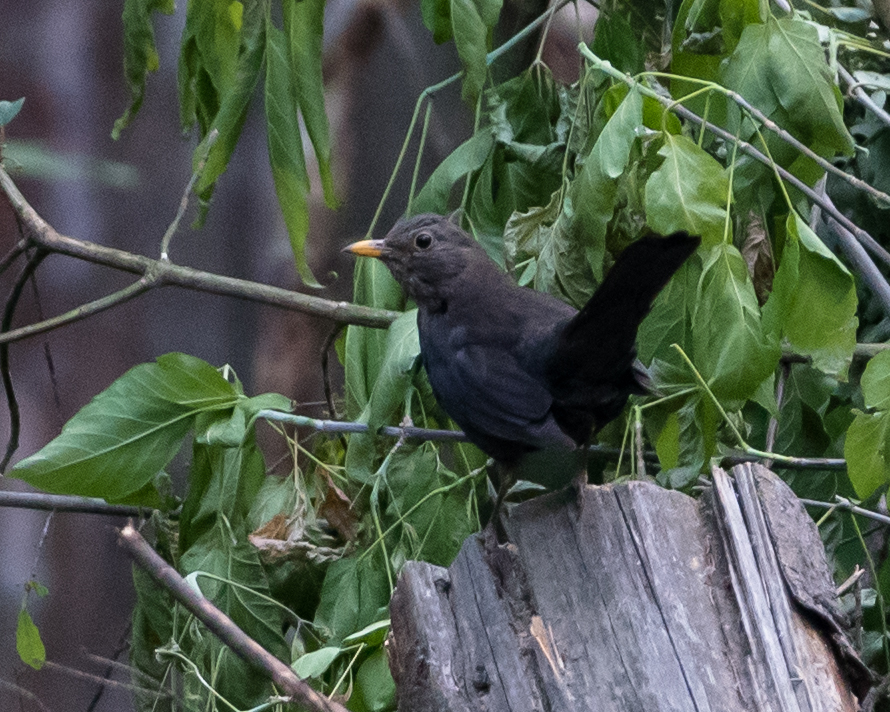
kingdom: Animalia
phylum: Chordata
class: Aves
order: Passeriformes
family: Turdidae
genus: Turdus
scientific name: Turdus merula
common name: Common blackbird
